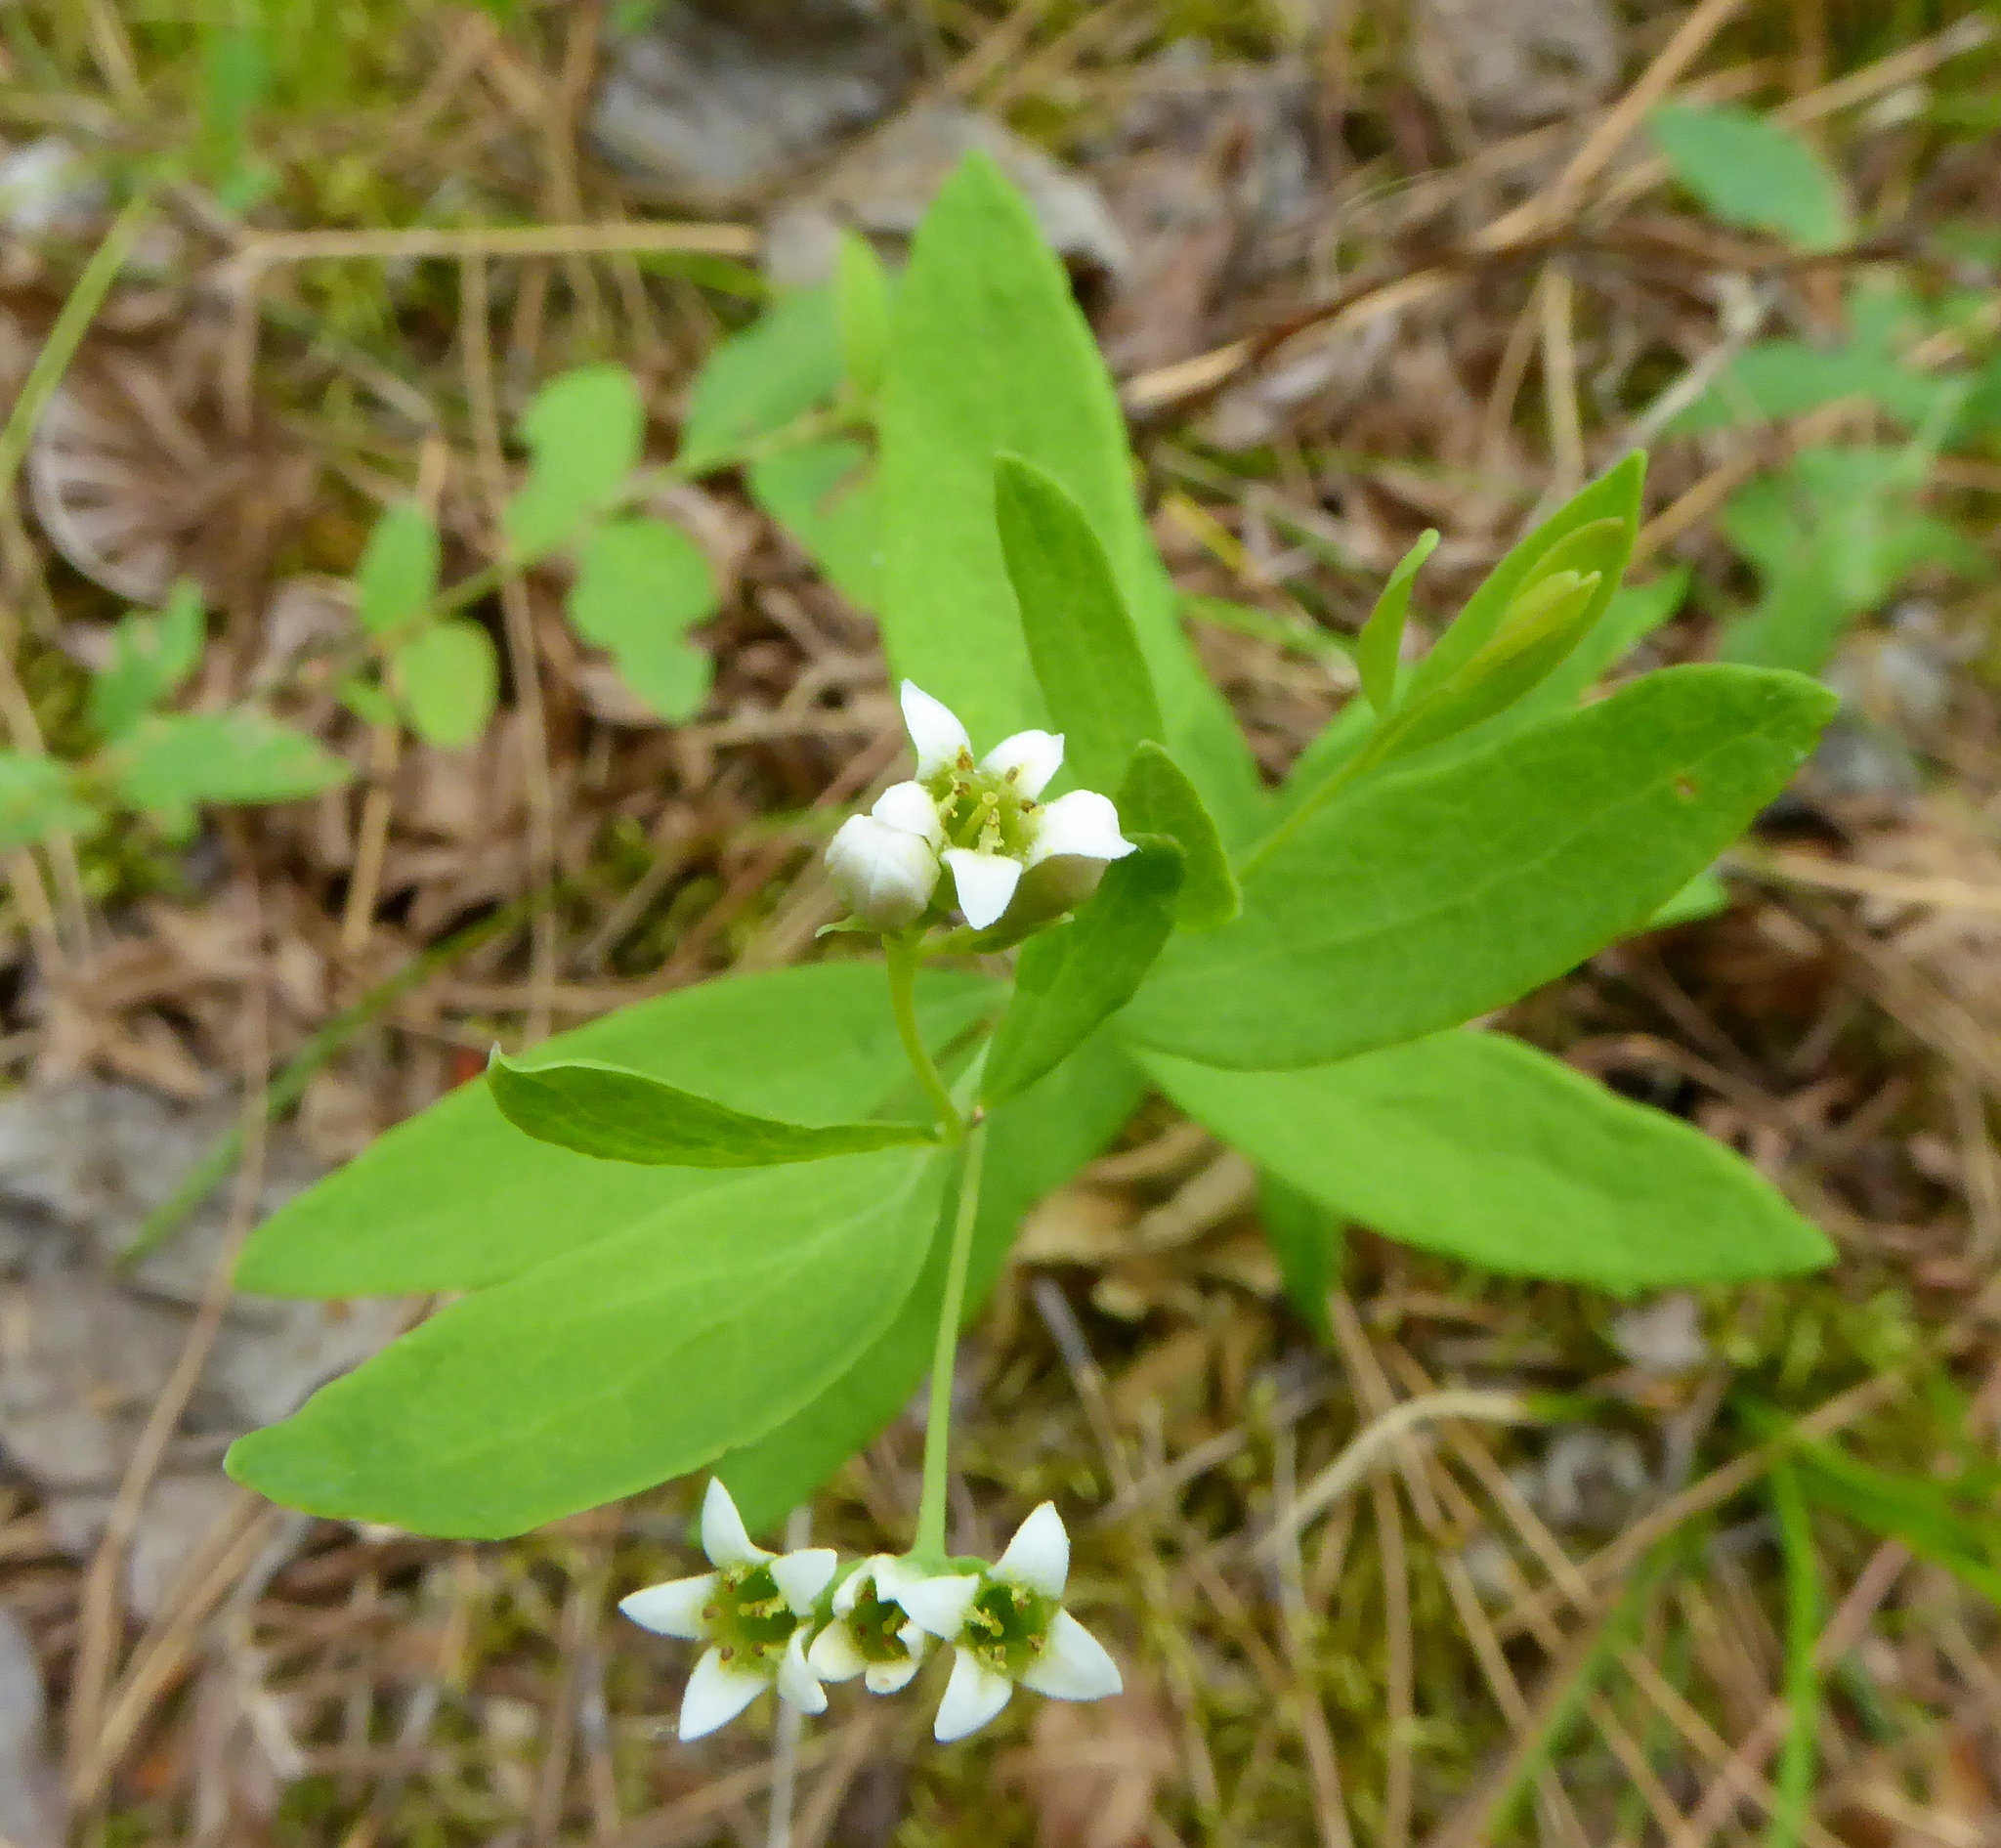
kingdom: Plantae
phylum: Tracheophyta
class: Magnoliopsida
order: Santalales
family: Comandraceae
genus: Comandra
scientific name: Comandra umbellata
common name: Bastard toadflax
